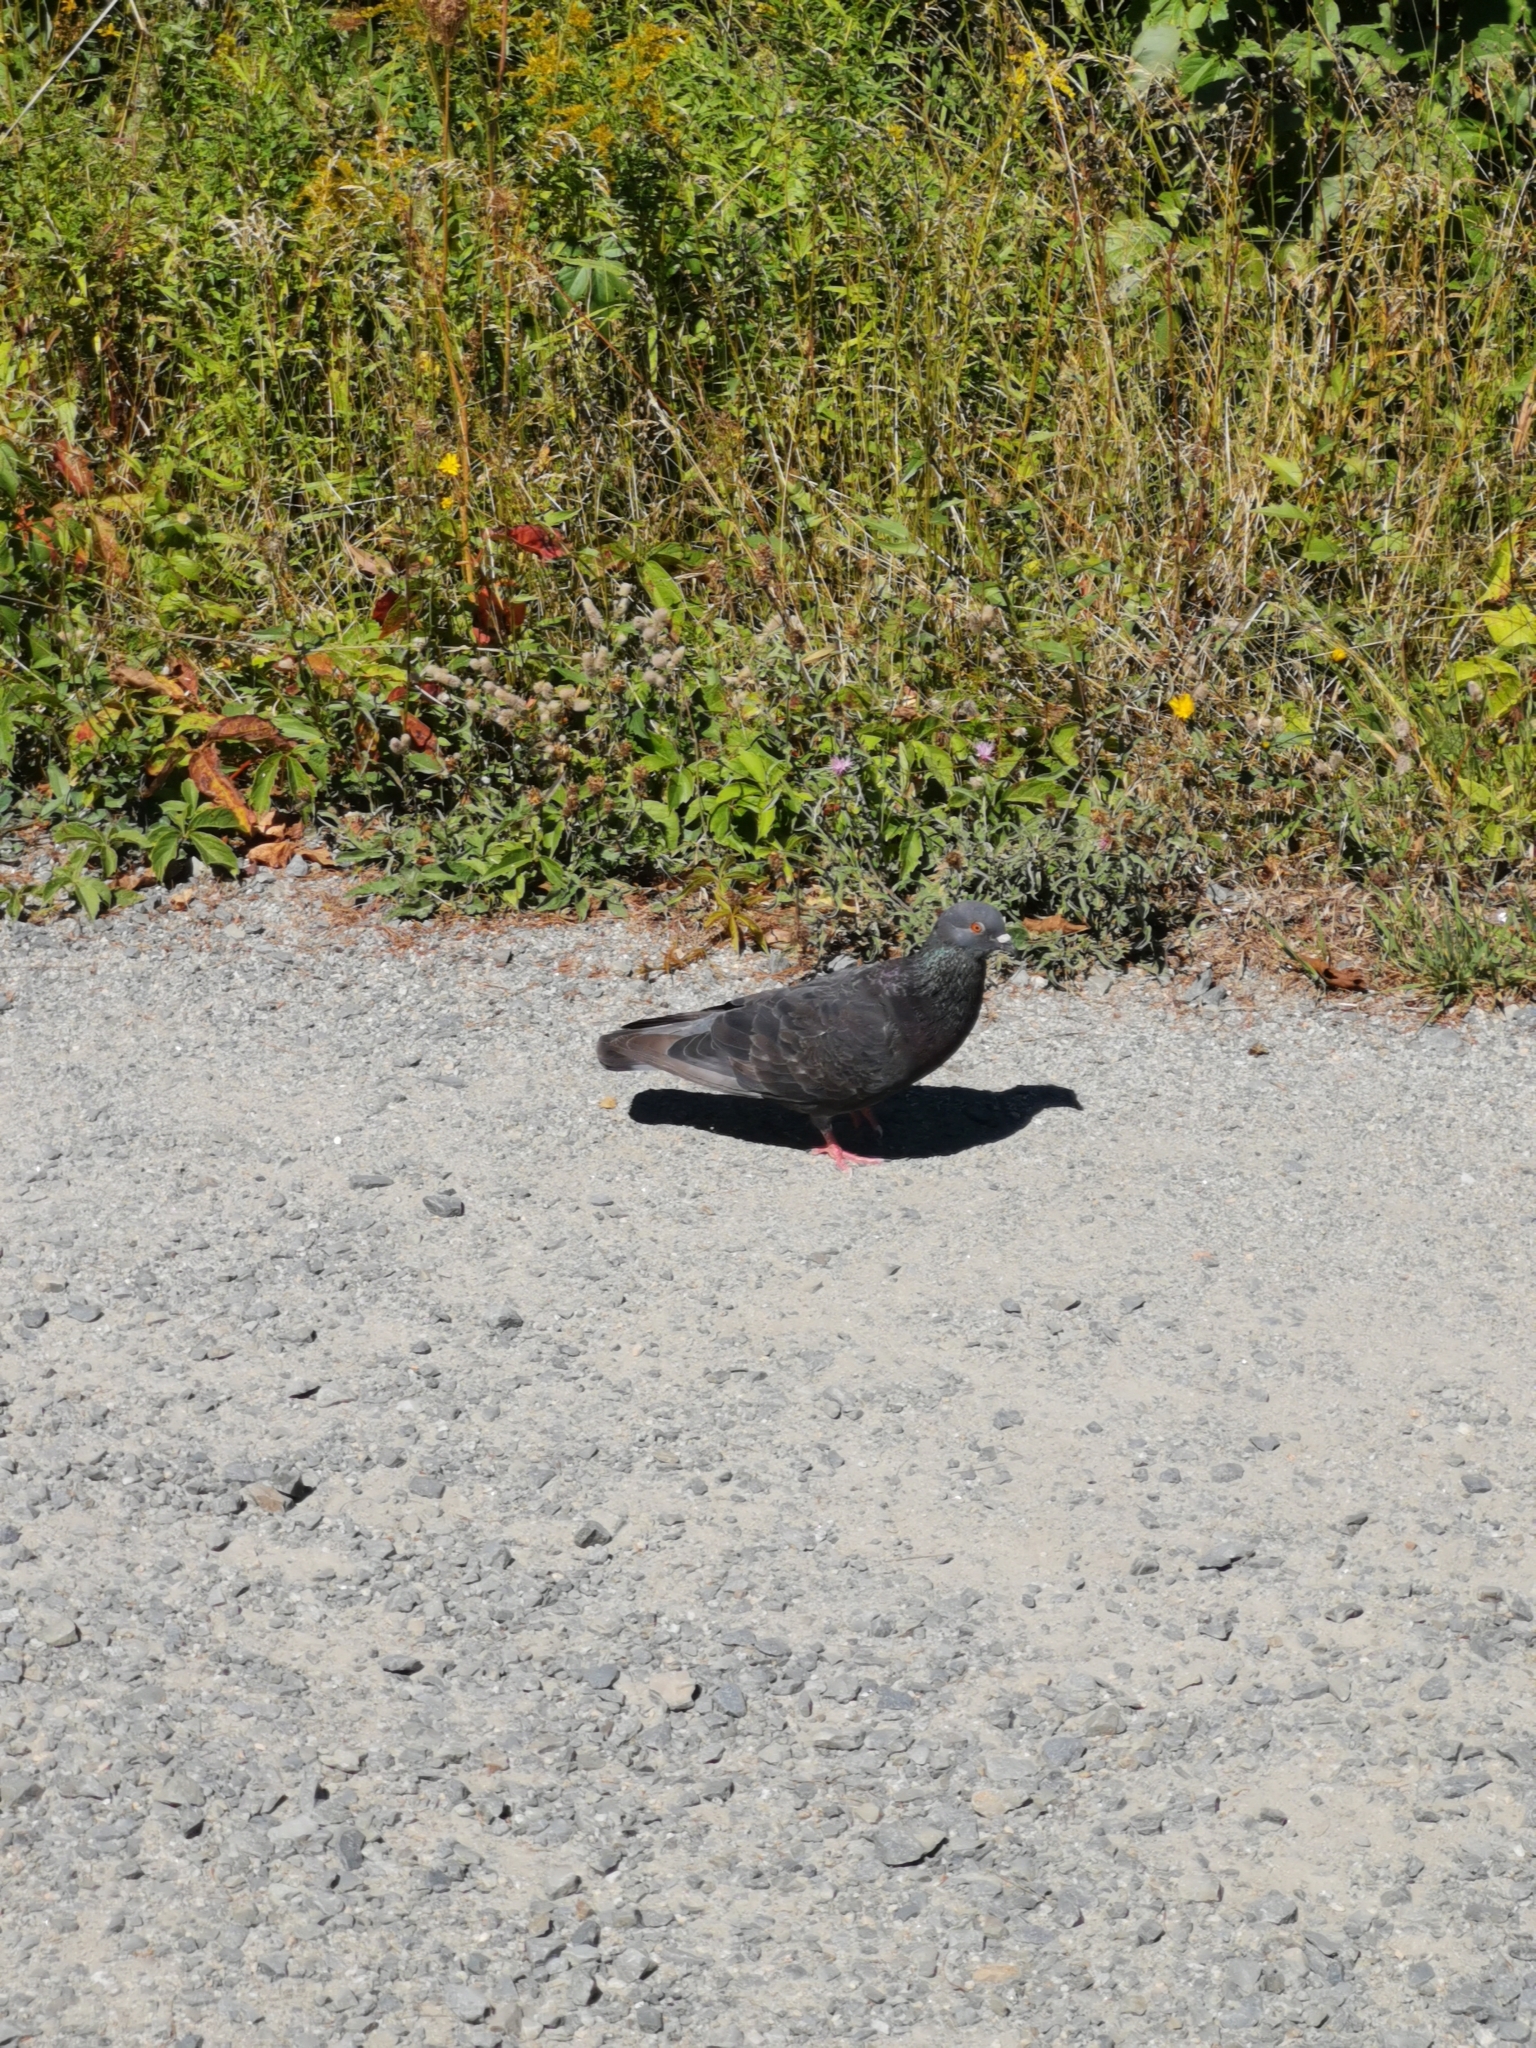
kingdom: Animalia
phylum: Chordata
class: Aves
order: Columbiformes
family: Columbidae
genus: Columba
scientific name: Columba livia
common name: Rock pigeon
